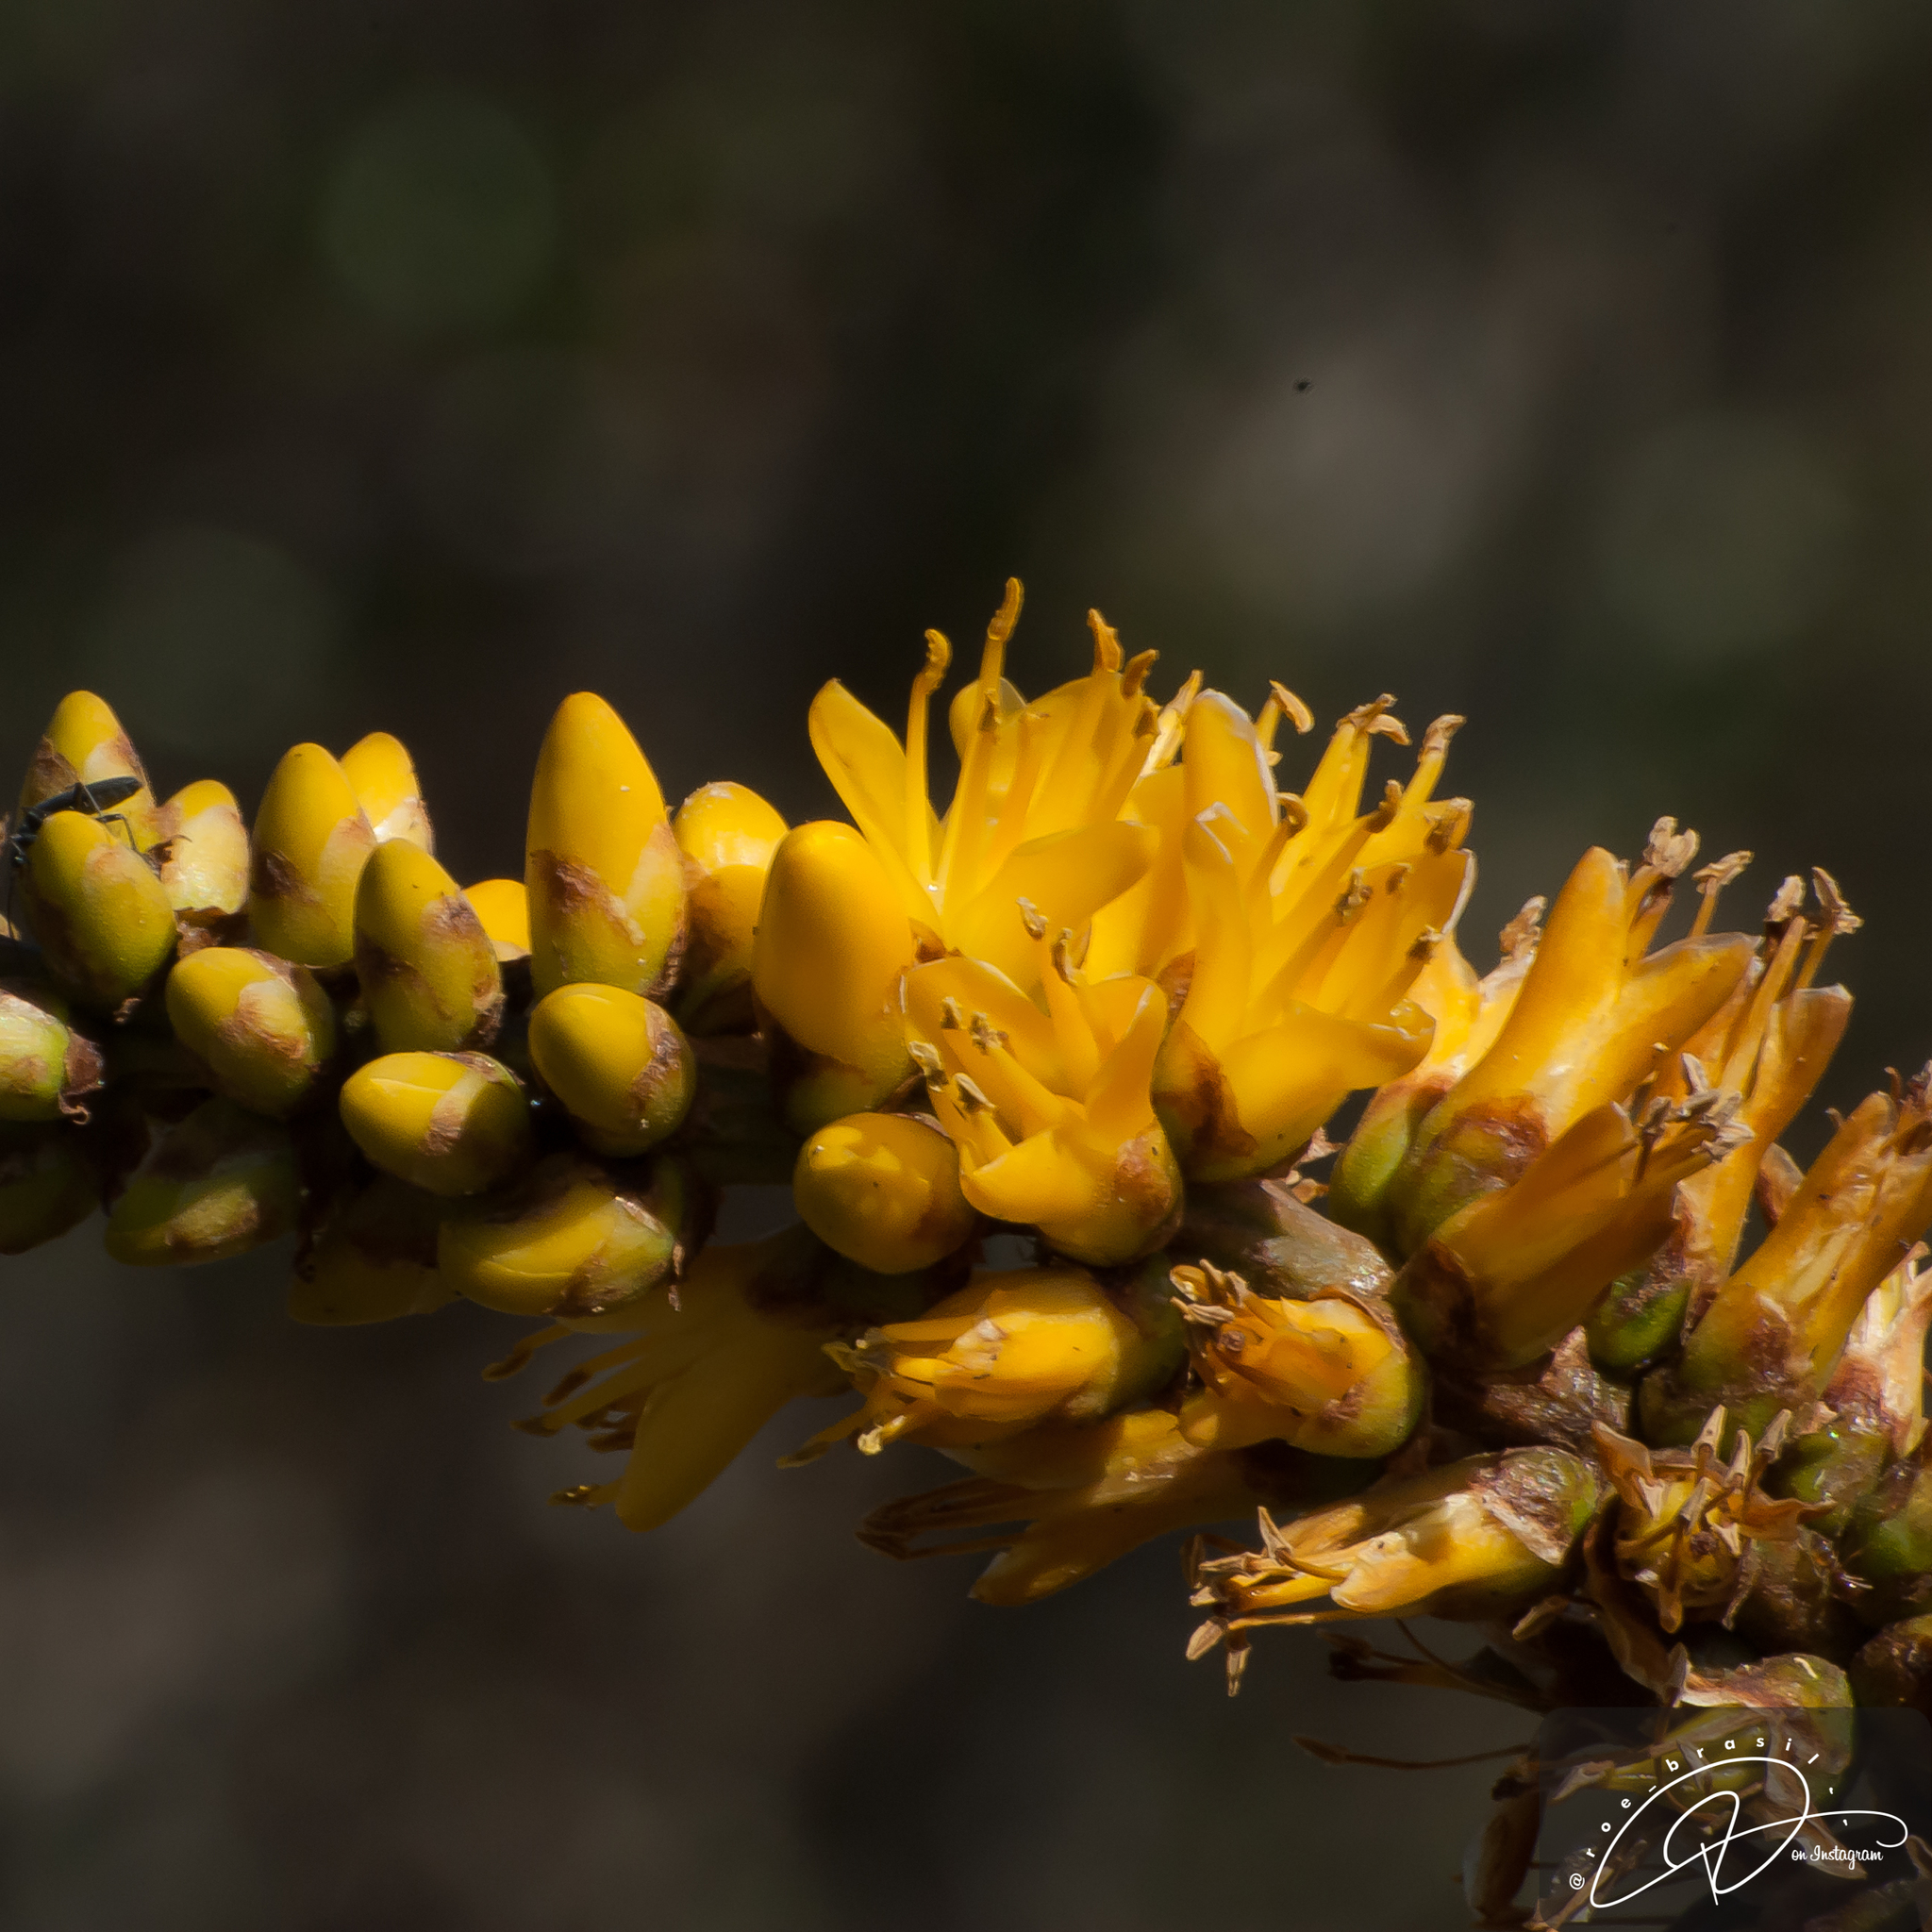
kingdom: Plantae
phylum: Tracheophyta
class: Liliopsida
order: Poales
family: Bromeliaceae
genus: Dyckia
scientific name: Dyckia walteriana
